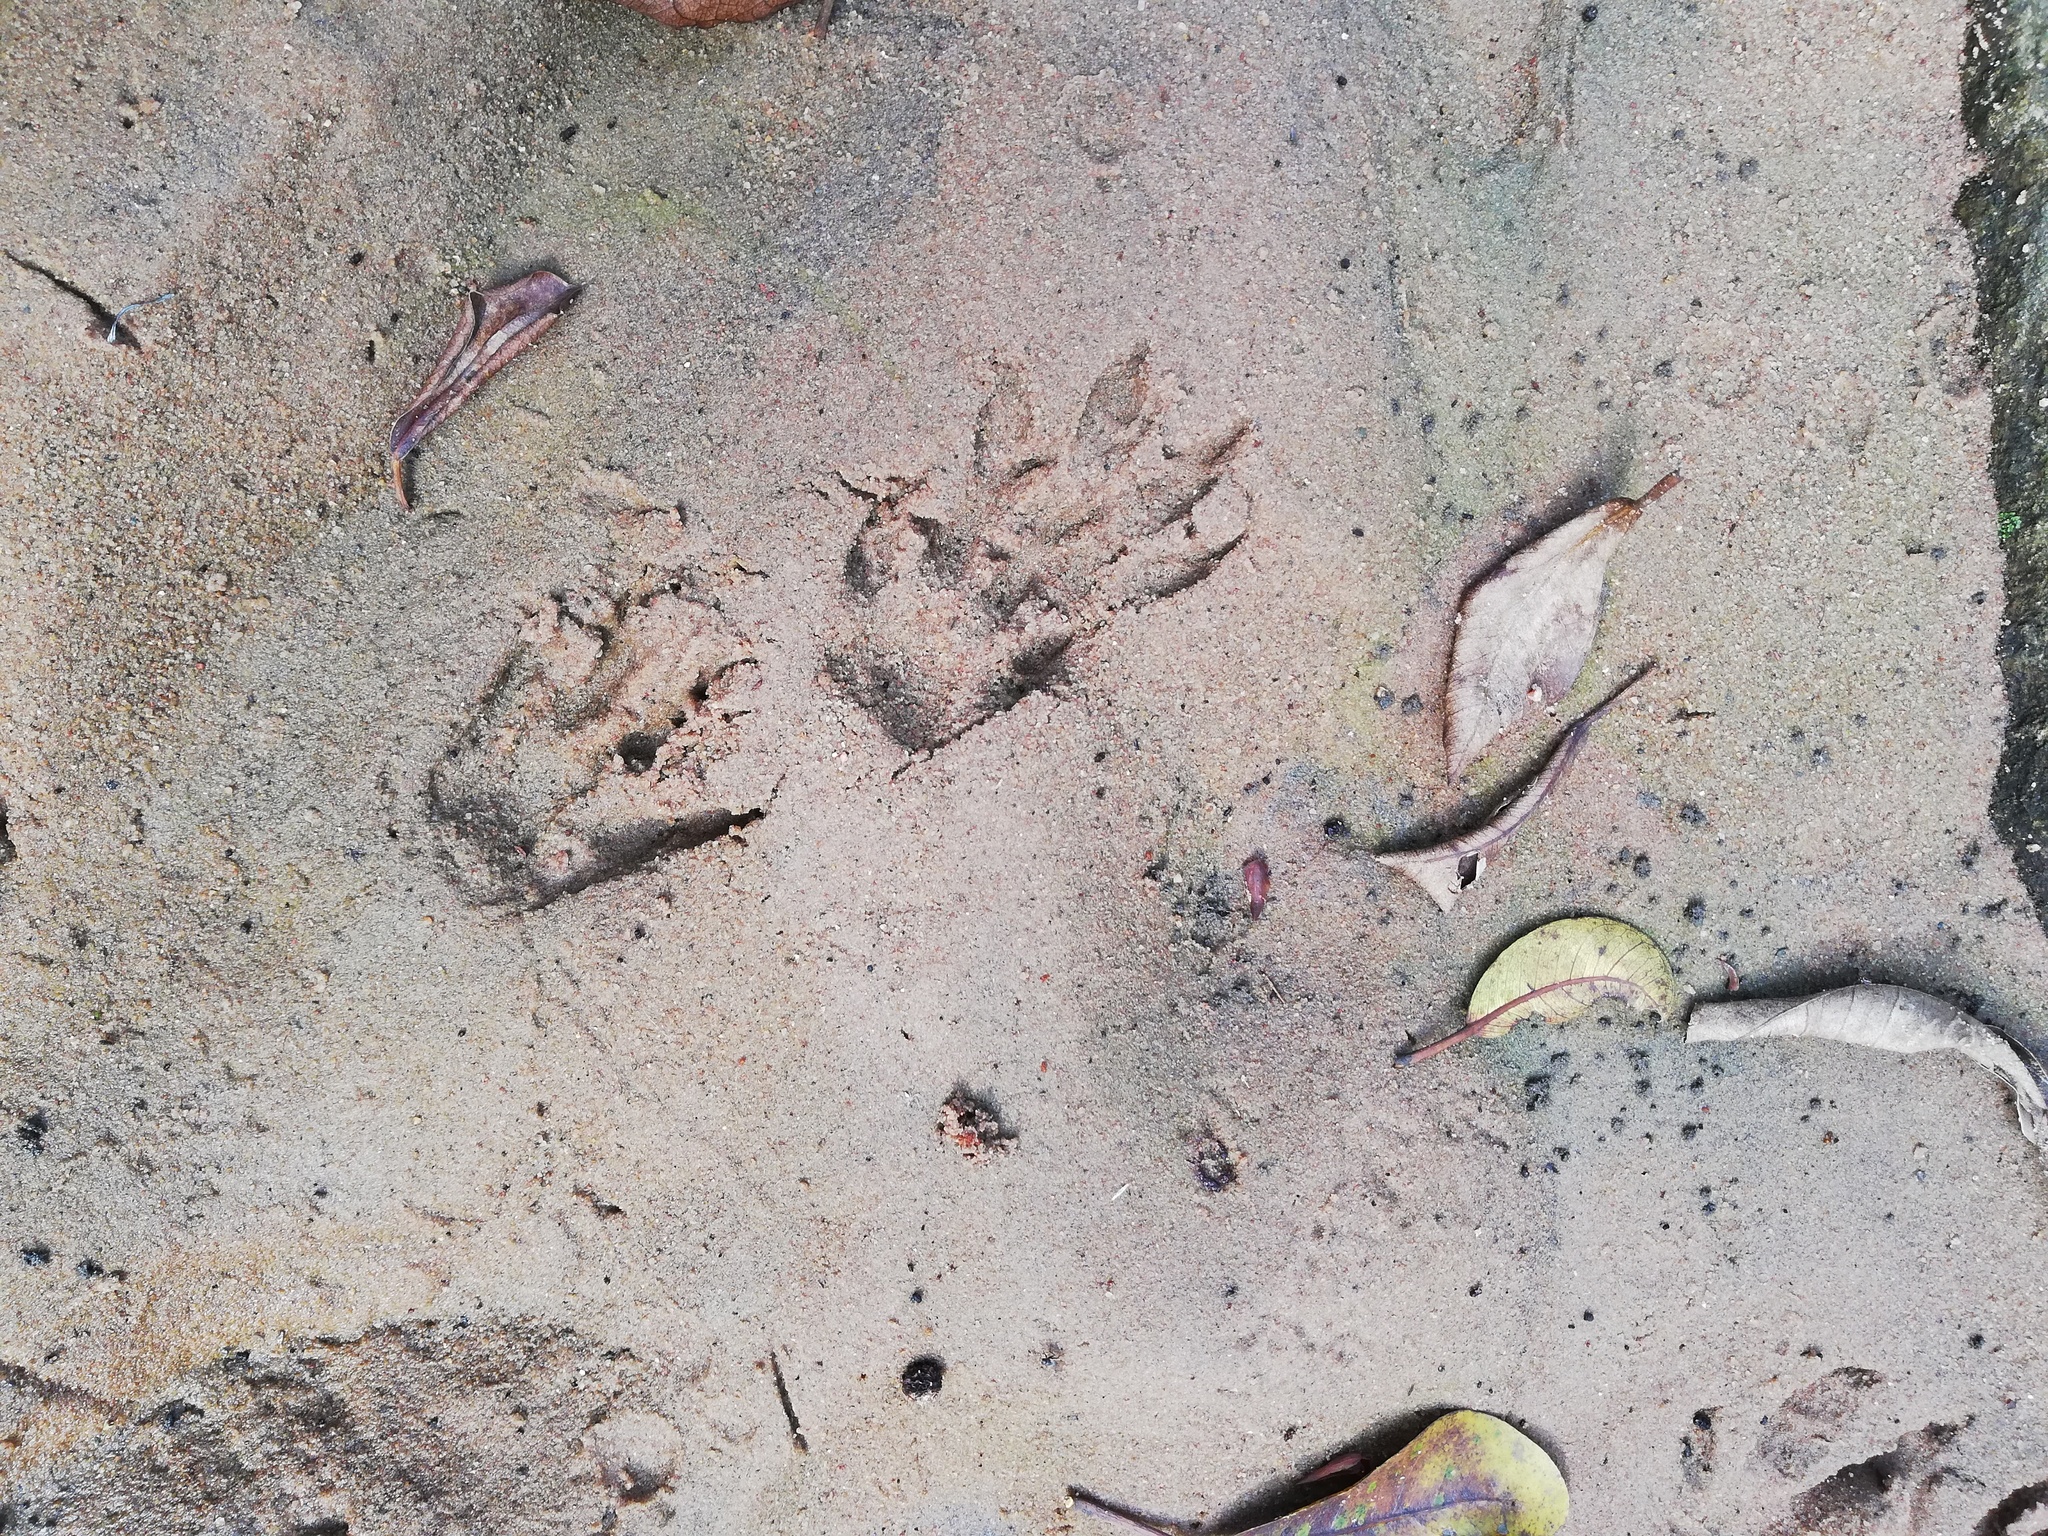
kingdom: Animalia
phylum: Chordata
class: Mammalia
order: Carnivora
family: Herpestidae
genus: Atilax
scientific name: Atilax paludinosus
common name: Marsh mongoose
